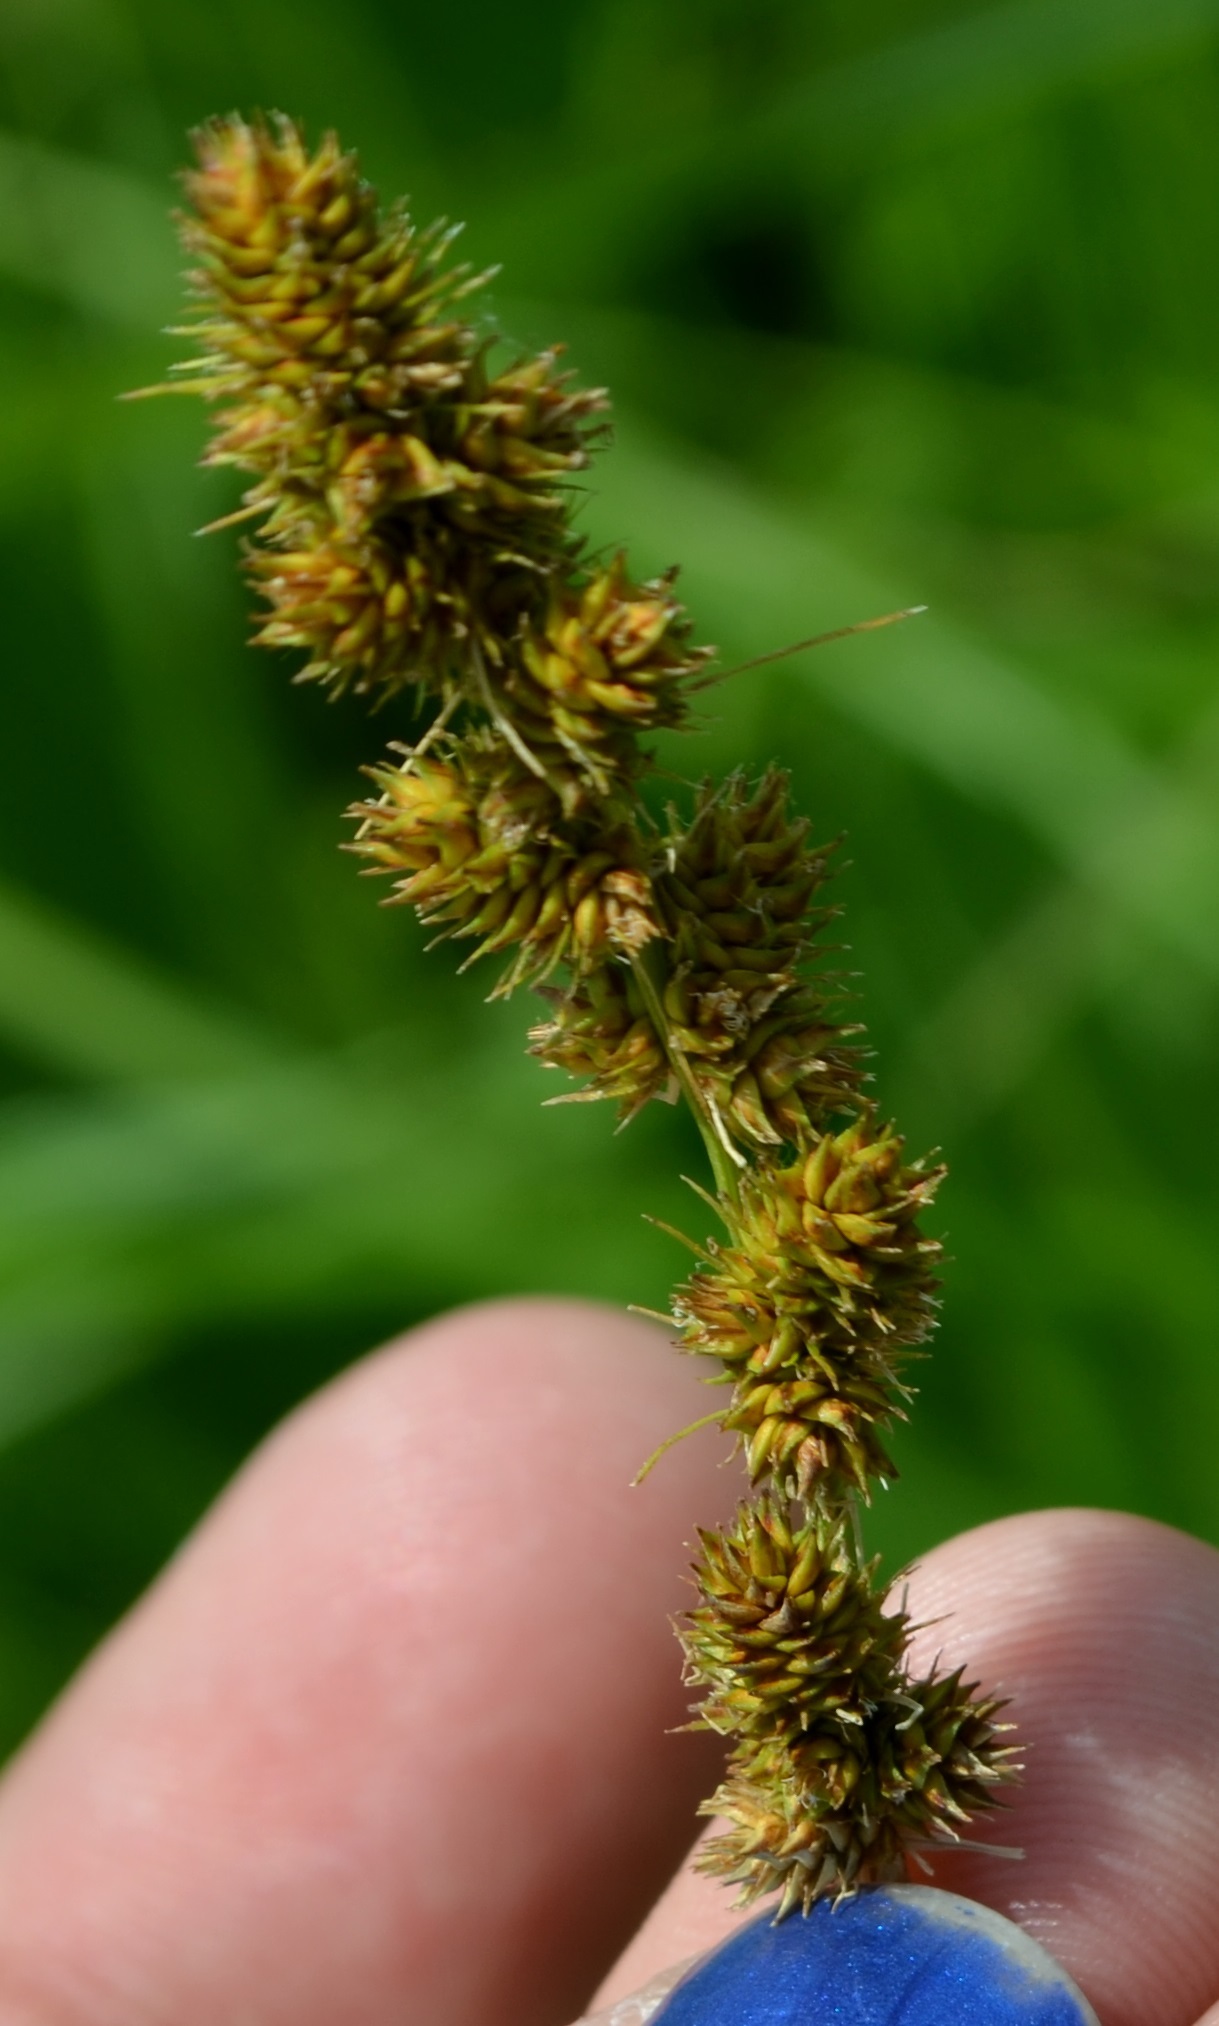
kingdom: Plantae
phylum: Tracheophyta
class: Liliopsida
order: Poales
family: Cyperaceae
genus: Carex
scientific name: Carex annectens
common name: Large fox sedge
